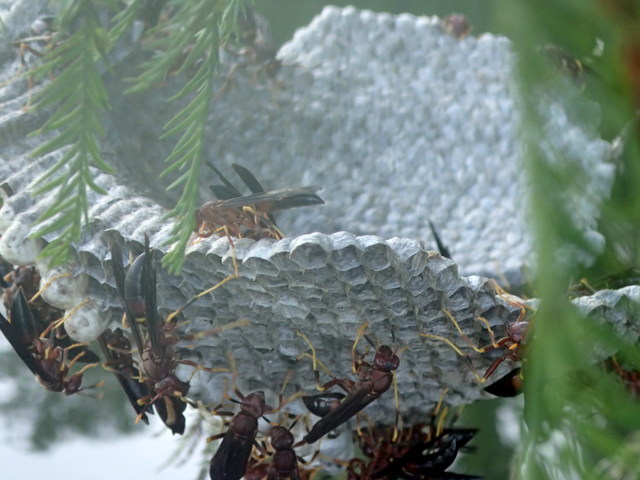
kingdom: Animalia
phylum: Arthropoda
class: Insecta
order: Hymenoptera
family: Eumenidae
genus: Polistes
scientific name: Polistes annularis
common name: Ringed paper wasp
